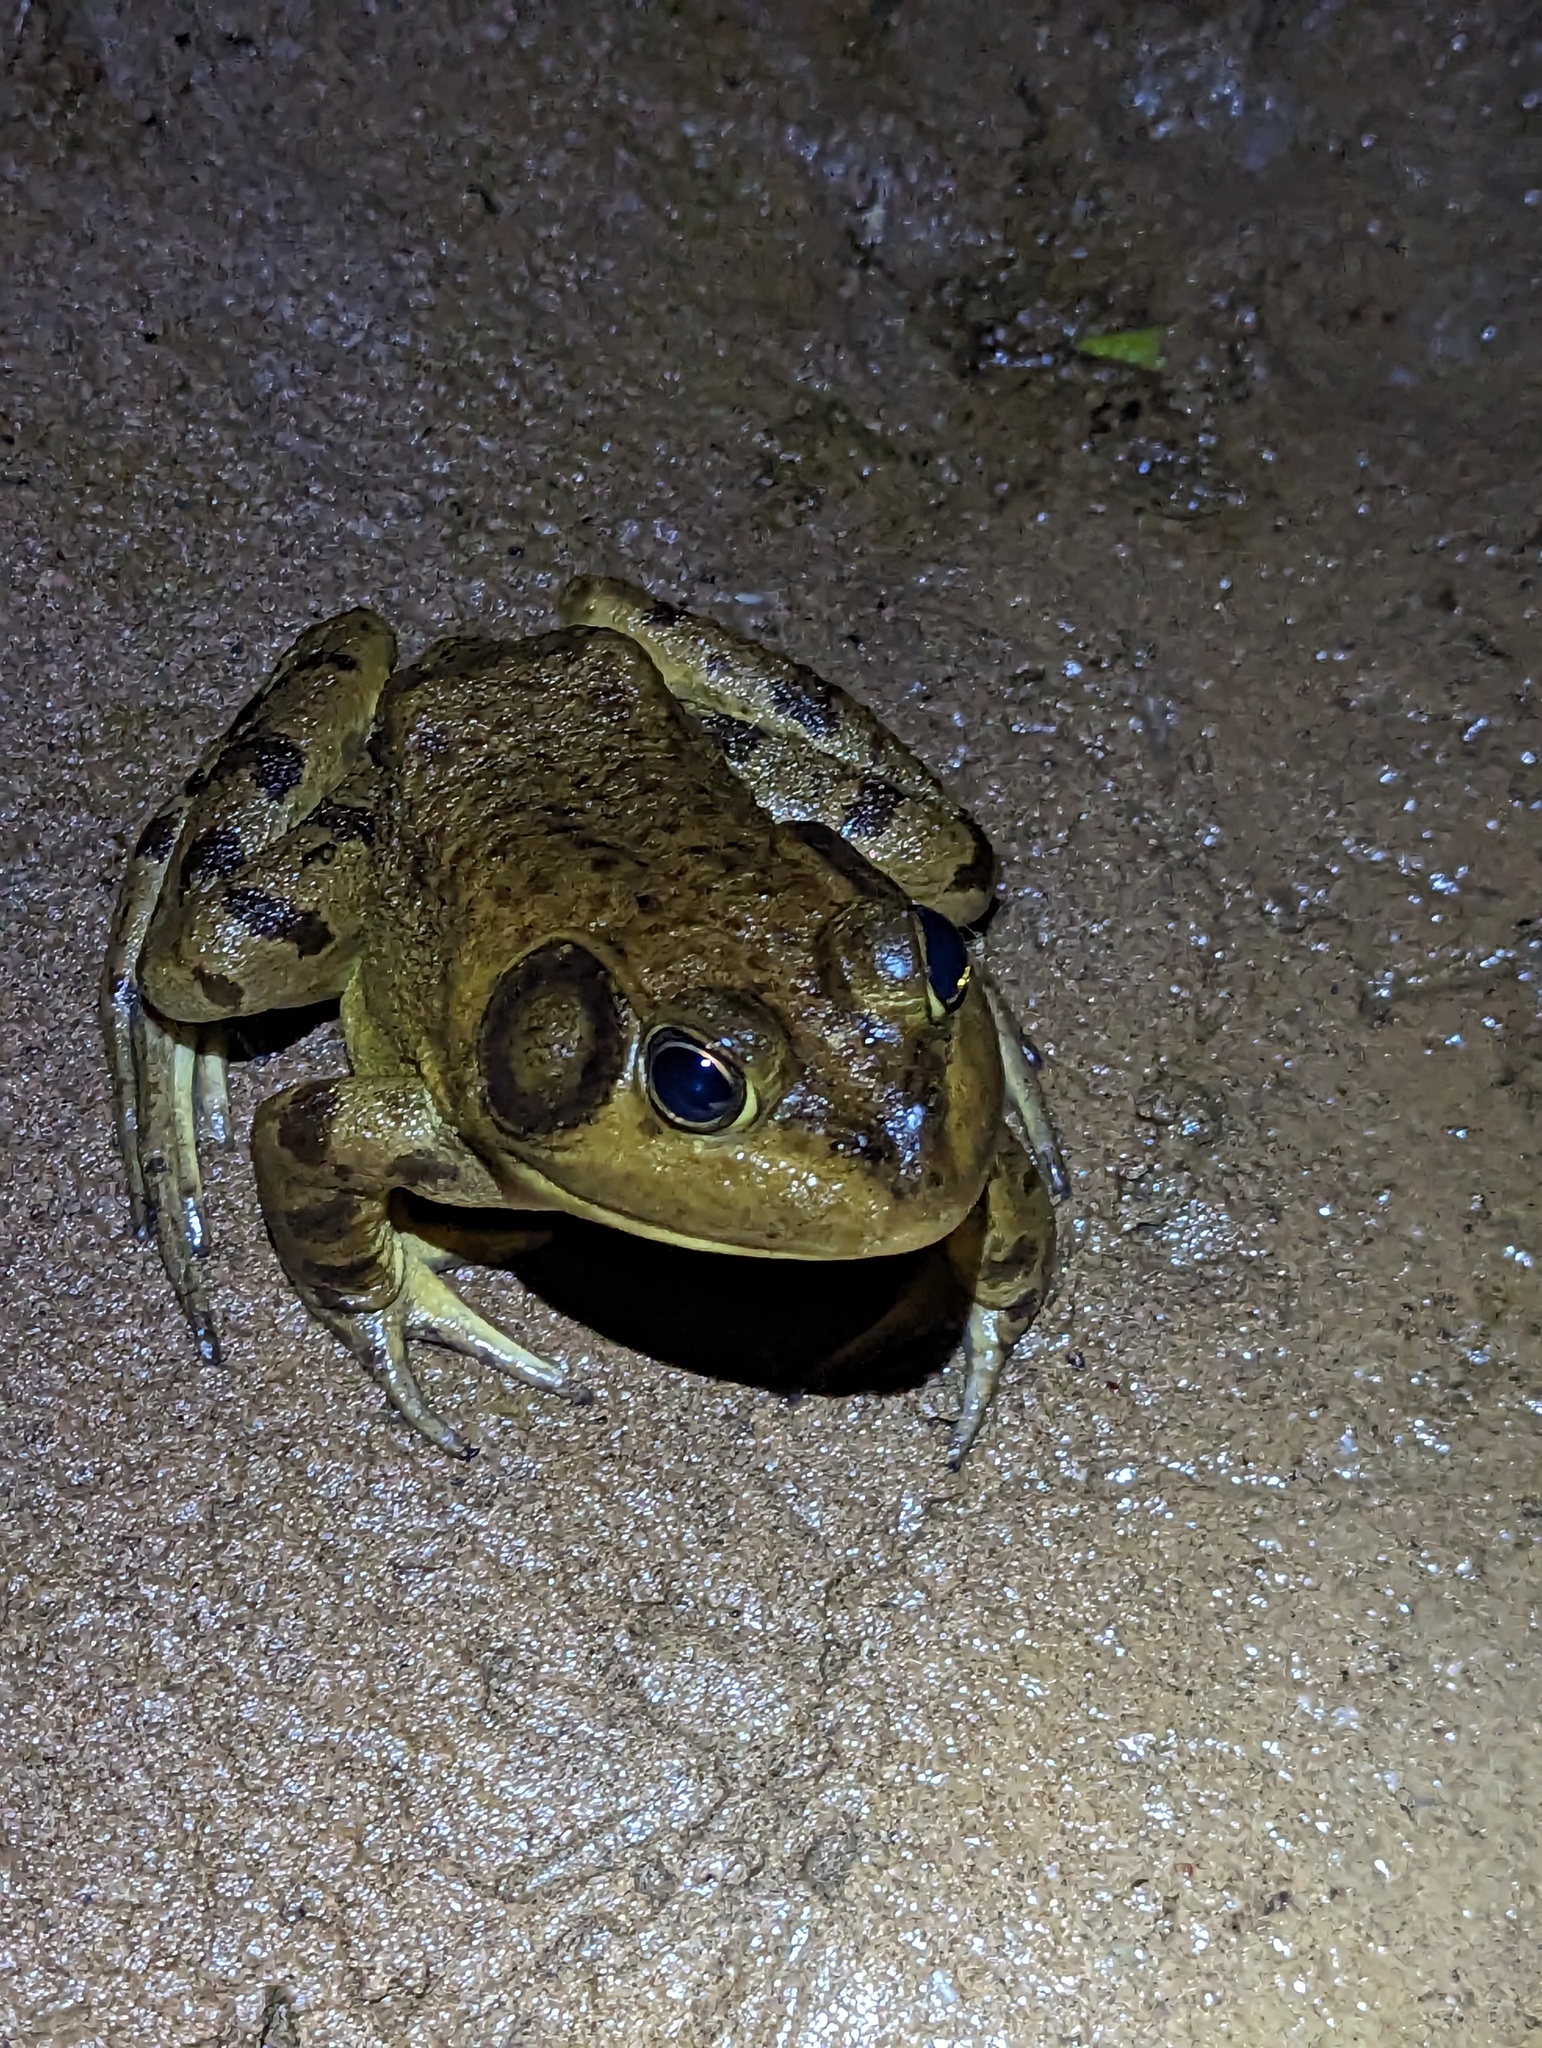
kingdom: Animalia
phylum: Chordata
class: Amphibia
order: Anura
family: Ranidae
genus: Lithobates
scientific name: Lithobates catesbeianus
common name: American bullfrog
